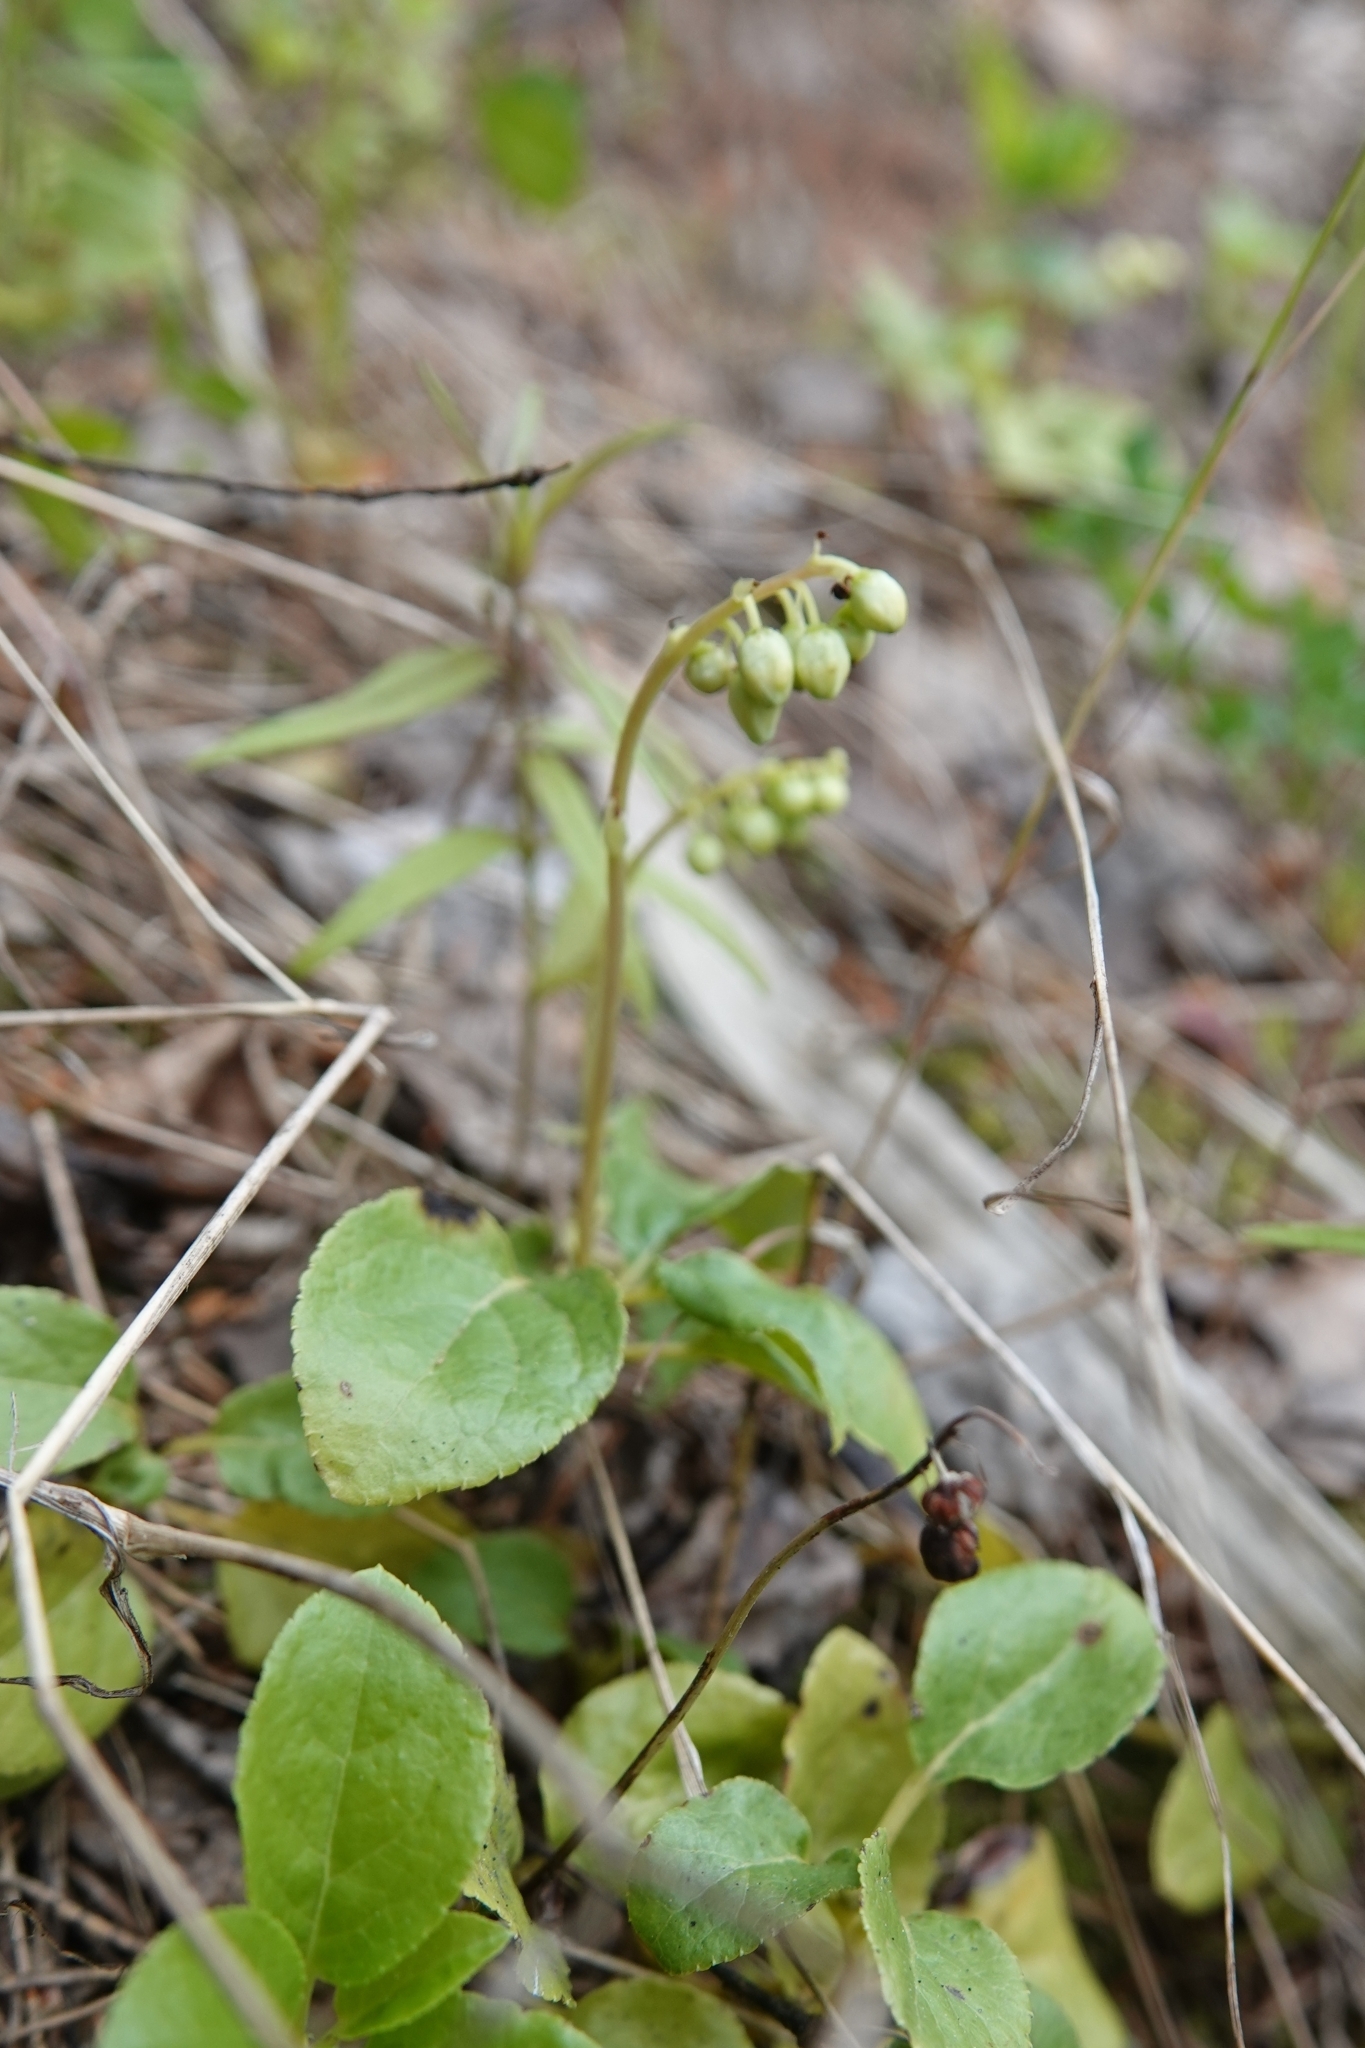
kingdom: Plantae
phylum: Tracheophyta
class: Magnoliopsida
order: Ericales
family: Ericaceae
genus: Orthilia
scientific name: Orthilia secunda
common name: One-sided orthilia
